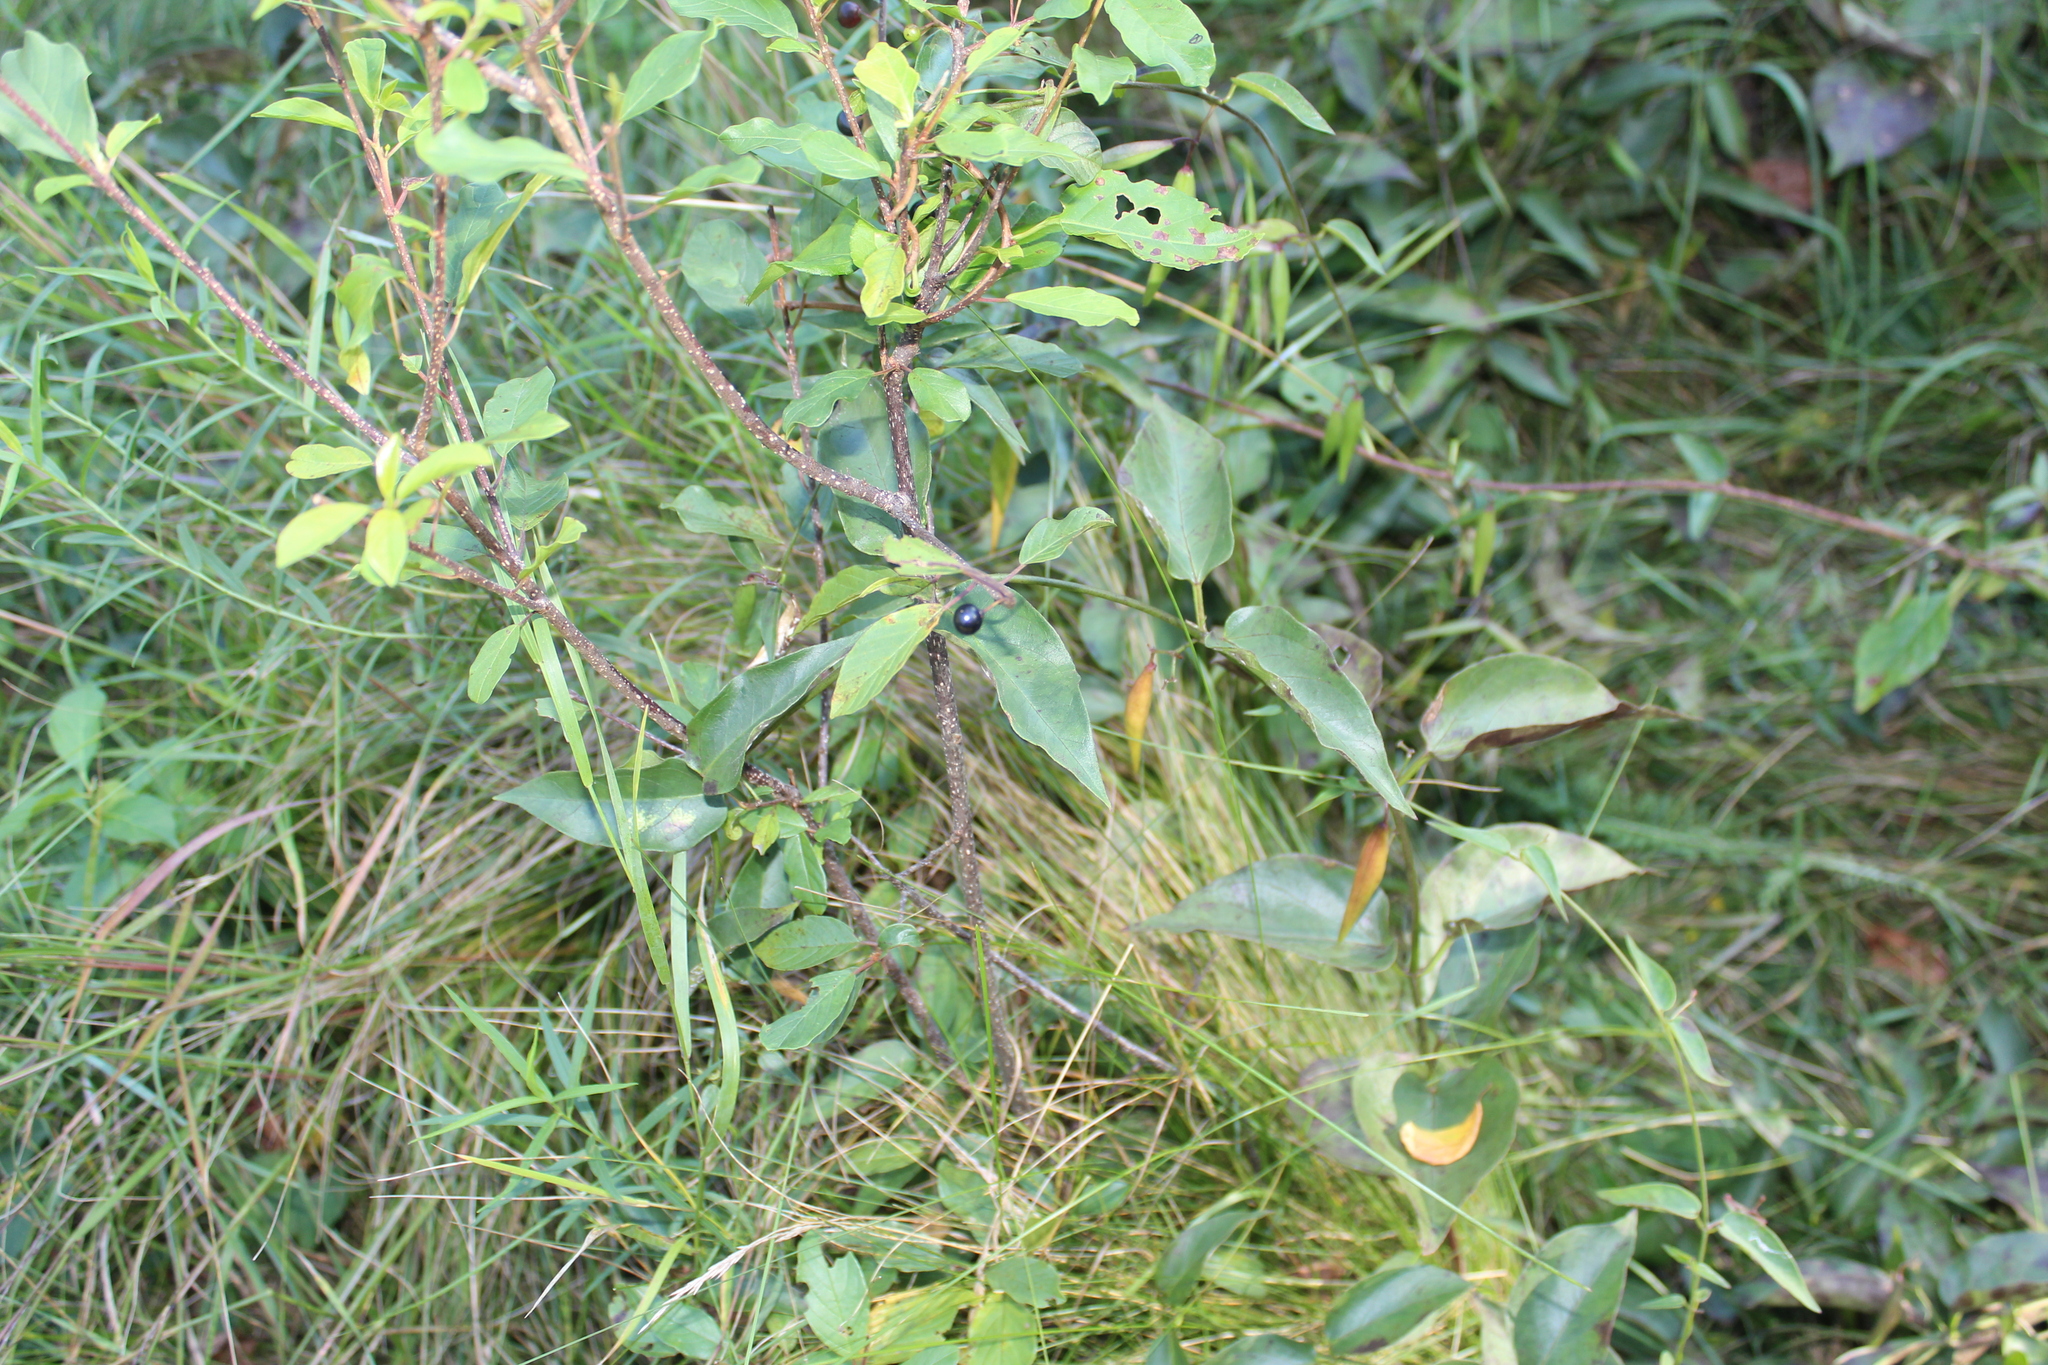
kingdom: Plantae
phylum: Tracheophyta
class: Magnoliopsida
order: Rosales
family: Rhamnaceae
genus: Frangula
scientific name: Frangula alnus
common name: Alder buckthorn
